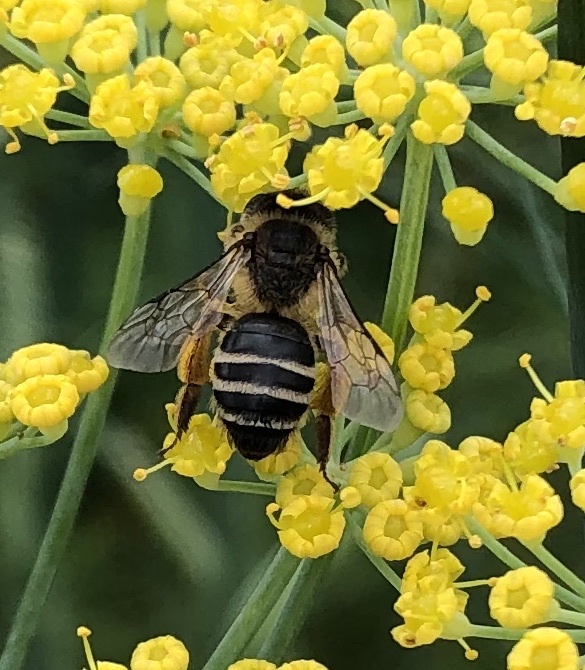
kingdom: Animalia
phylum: Arthropoda
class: Insecta
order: Hymenoptera
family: Andrenidae
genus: Andrena
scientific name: Andrena flavipes
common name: Yellow-legged mining bee
